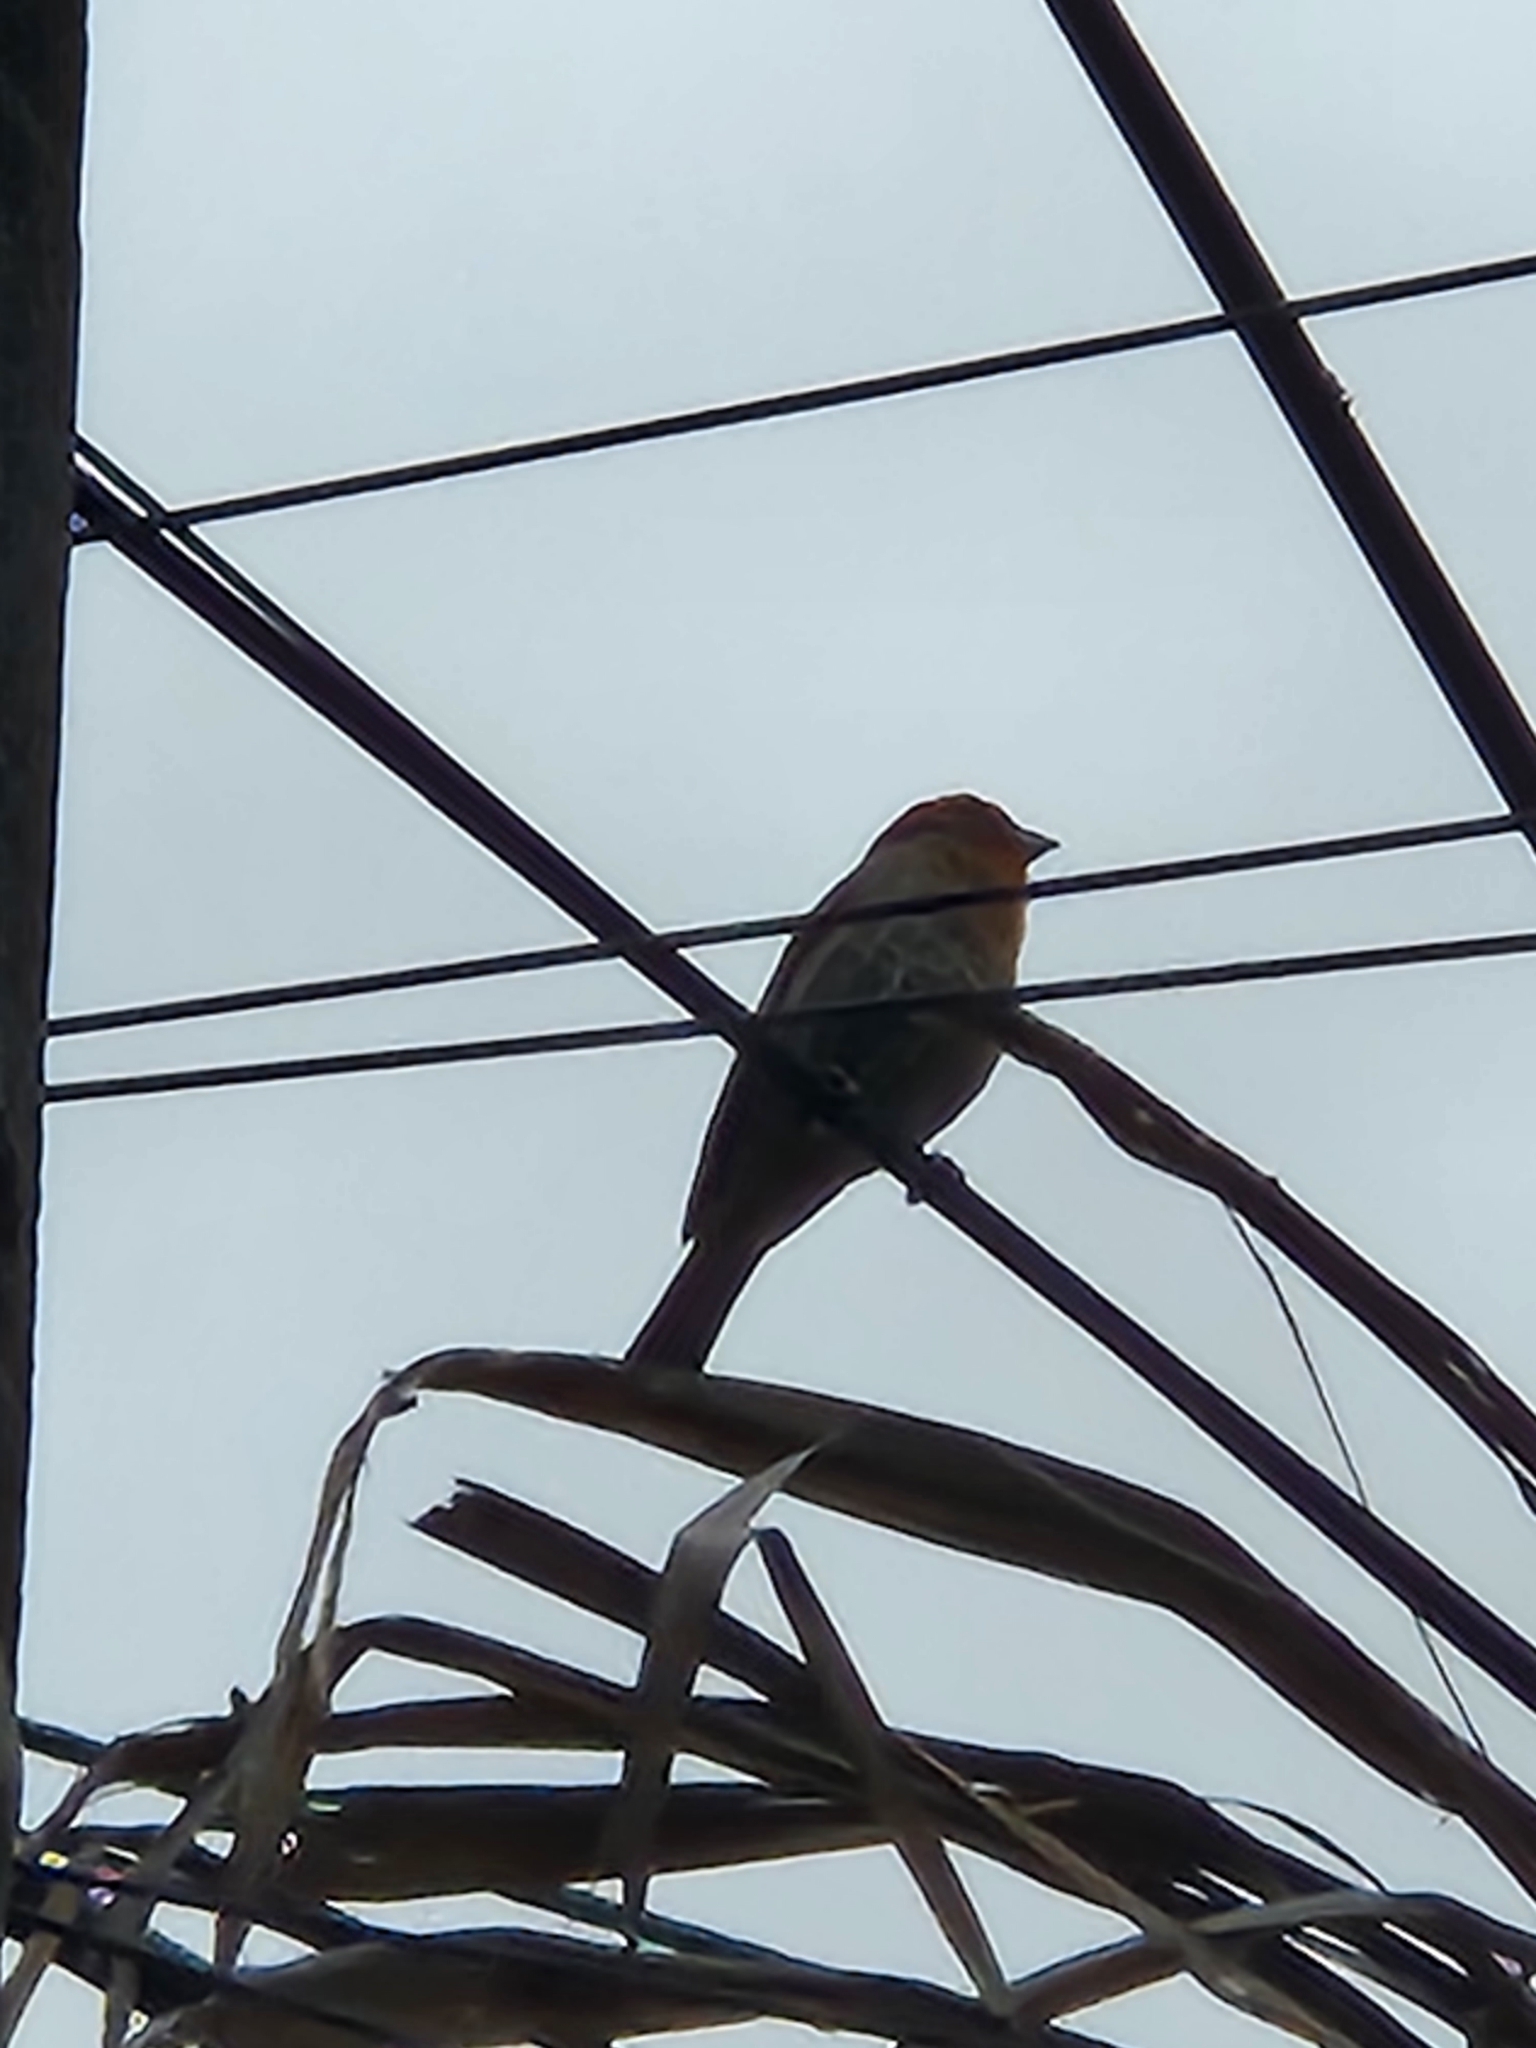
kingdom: Animalia
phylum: Chordata
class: Aves
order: Passeriformes
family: Fringillidae
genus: Haemorhous
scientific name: Haemorhous mexicanus
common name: House finch
